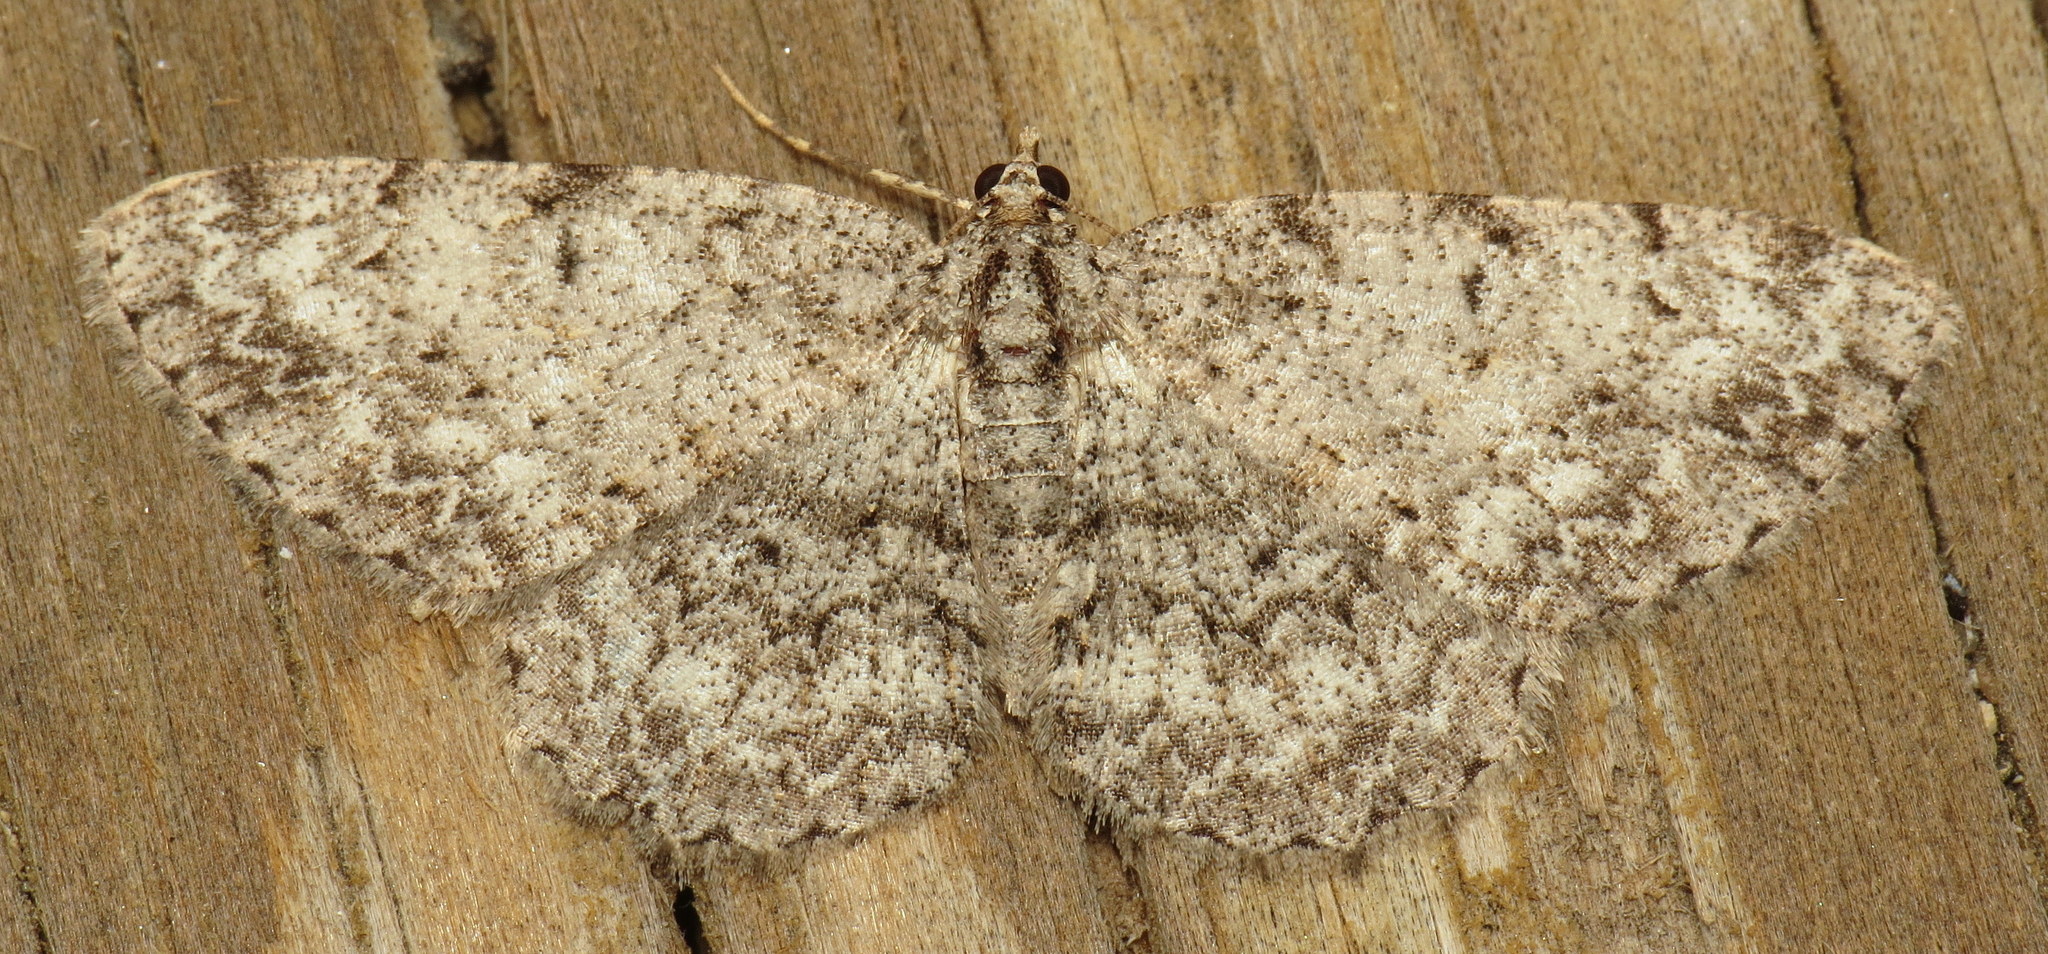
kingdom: Animalia
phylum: Arthropoda
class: Insecta
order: Lepidoptera
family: Geometridae
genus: Protoboarmia
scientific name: Protoboarmia porcelaria
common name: Porcelain gray
